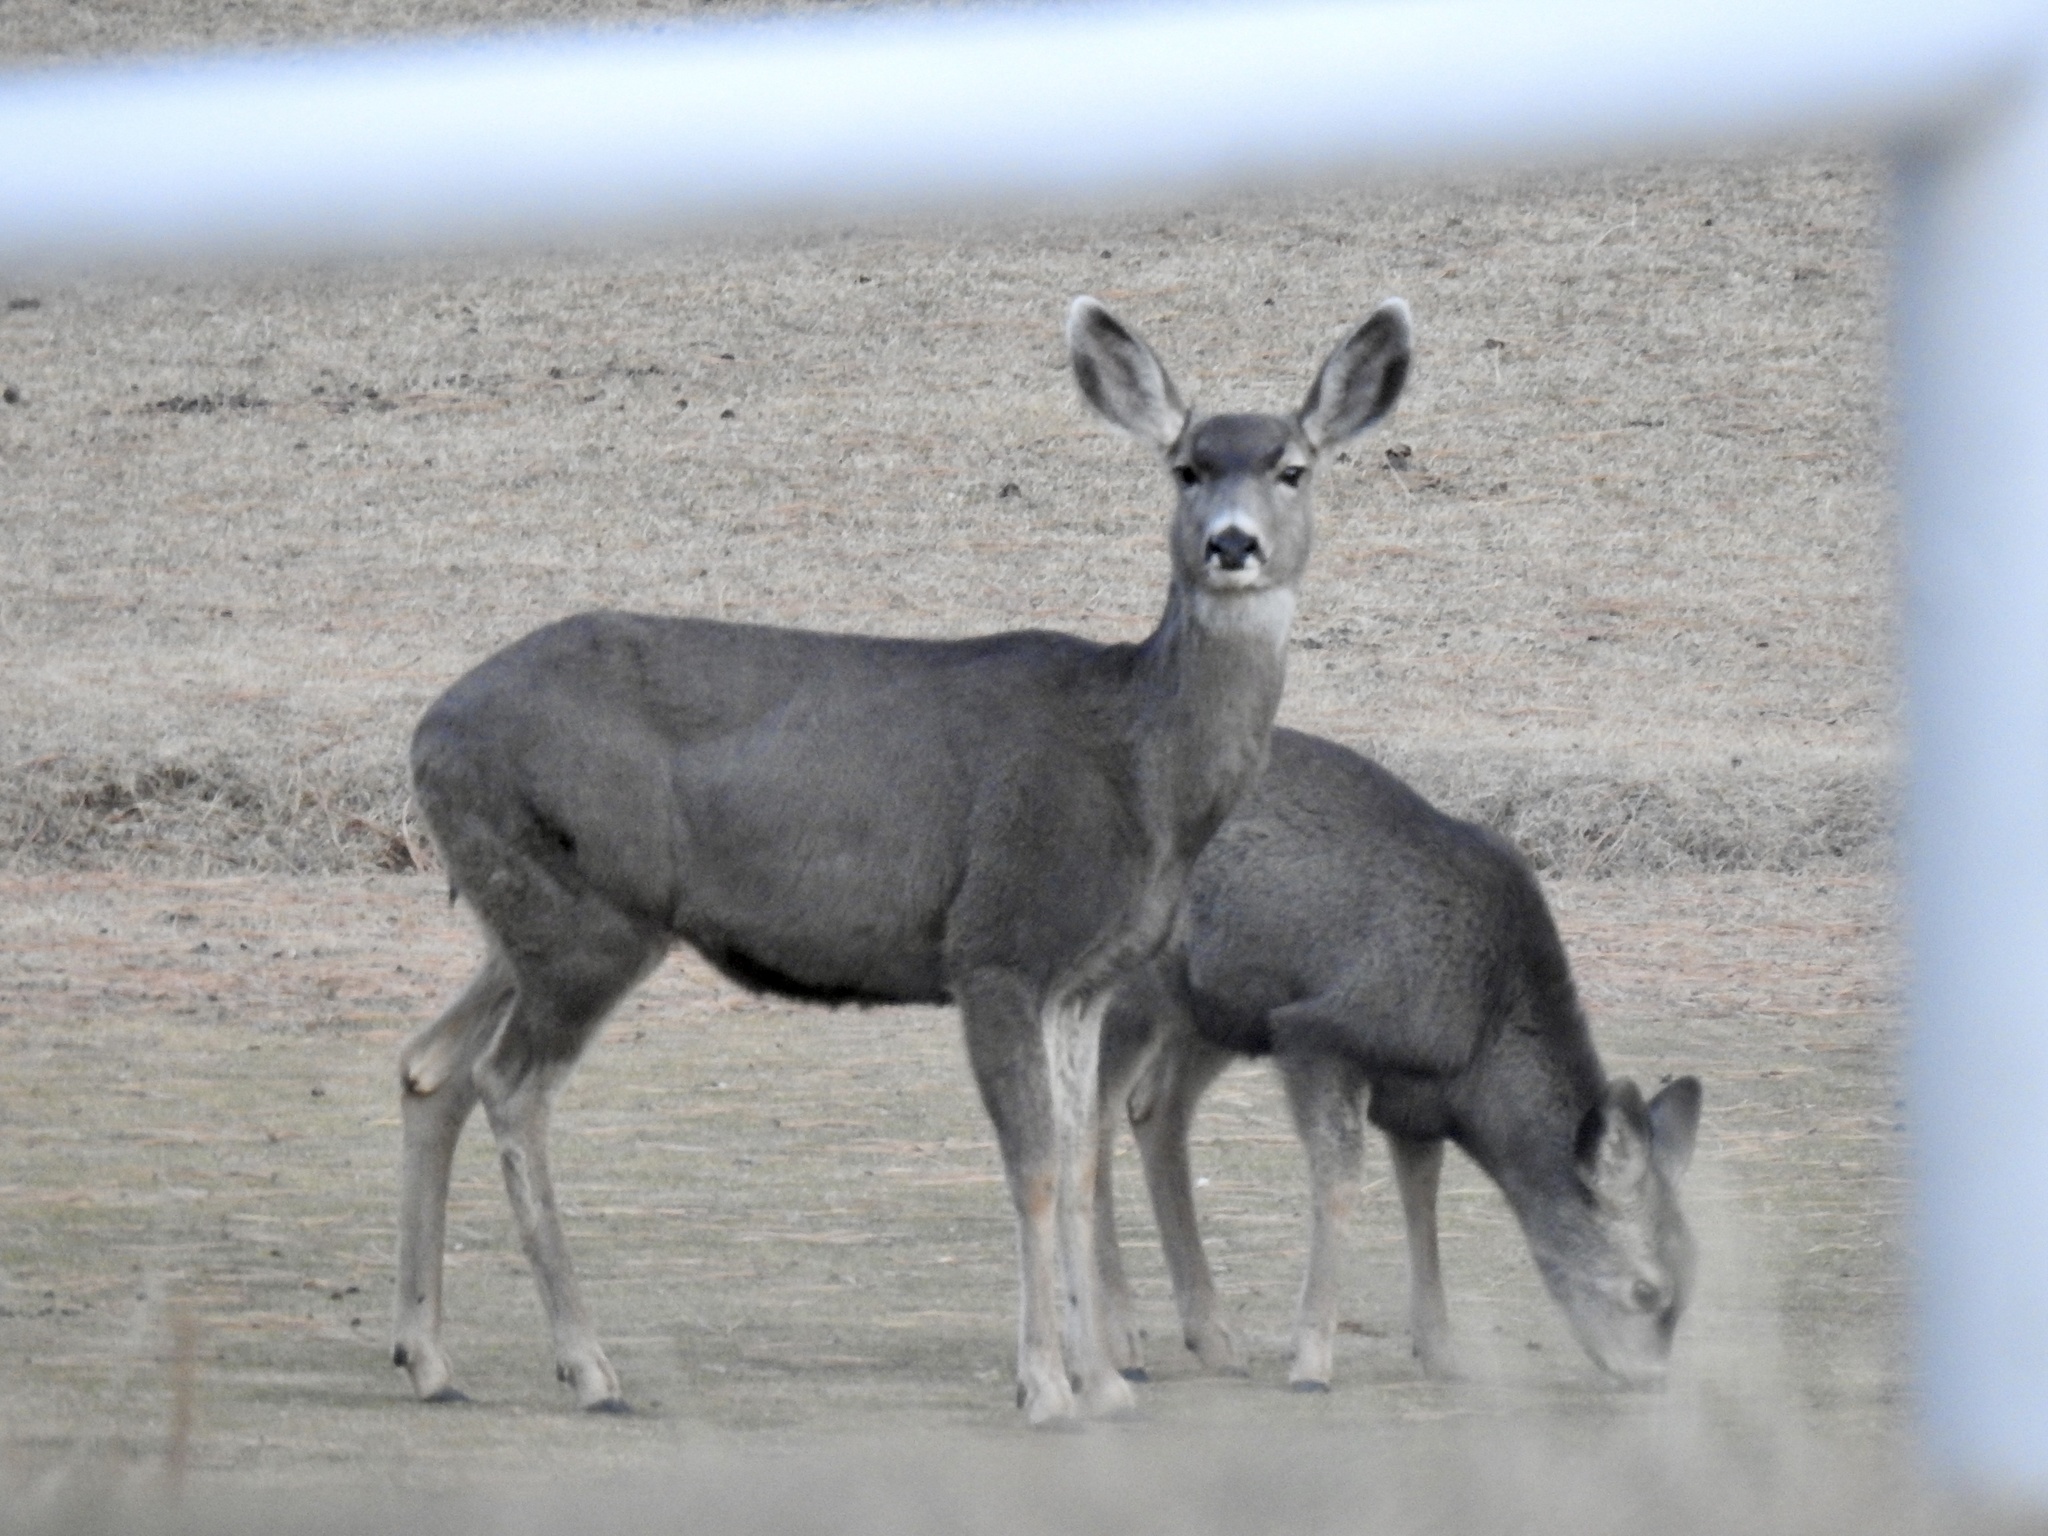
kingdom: Animalia
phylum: Chordata
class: Mammalia
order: Artiodactyla
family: Cervidae
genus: Odocoileus
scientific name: Odocoileus hemionus
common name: Mule deer
